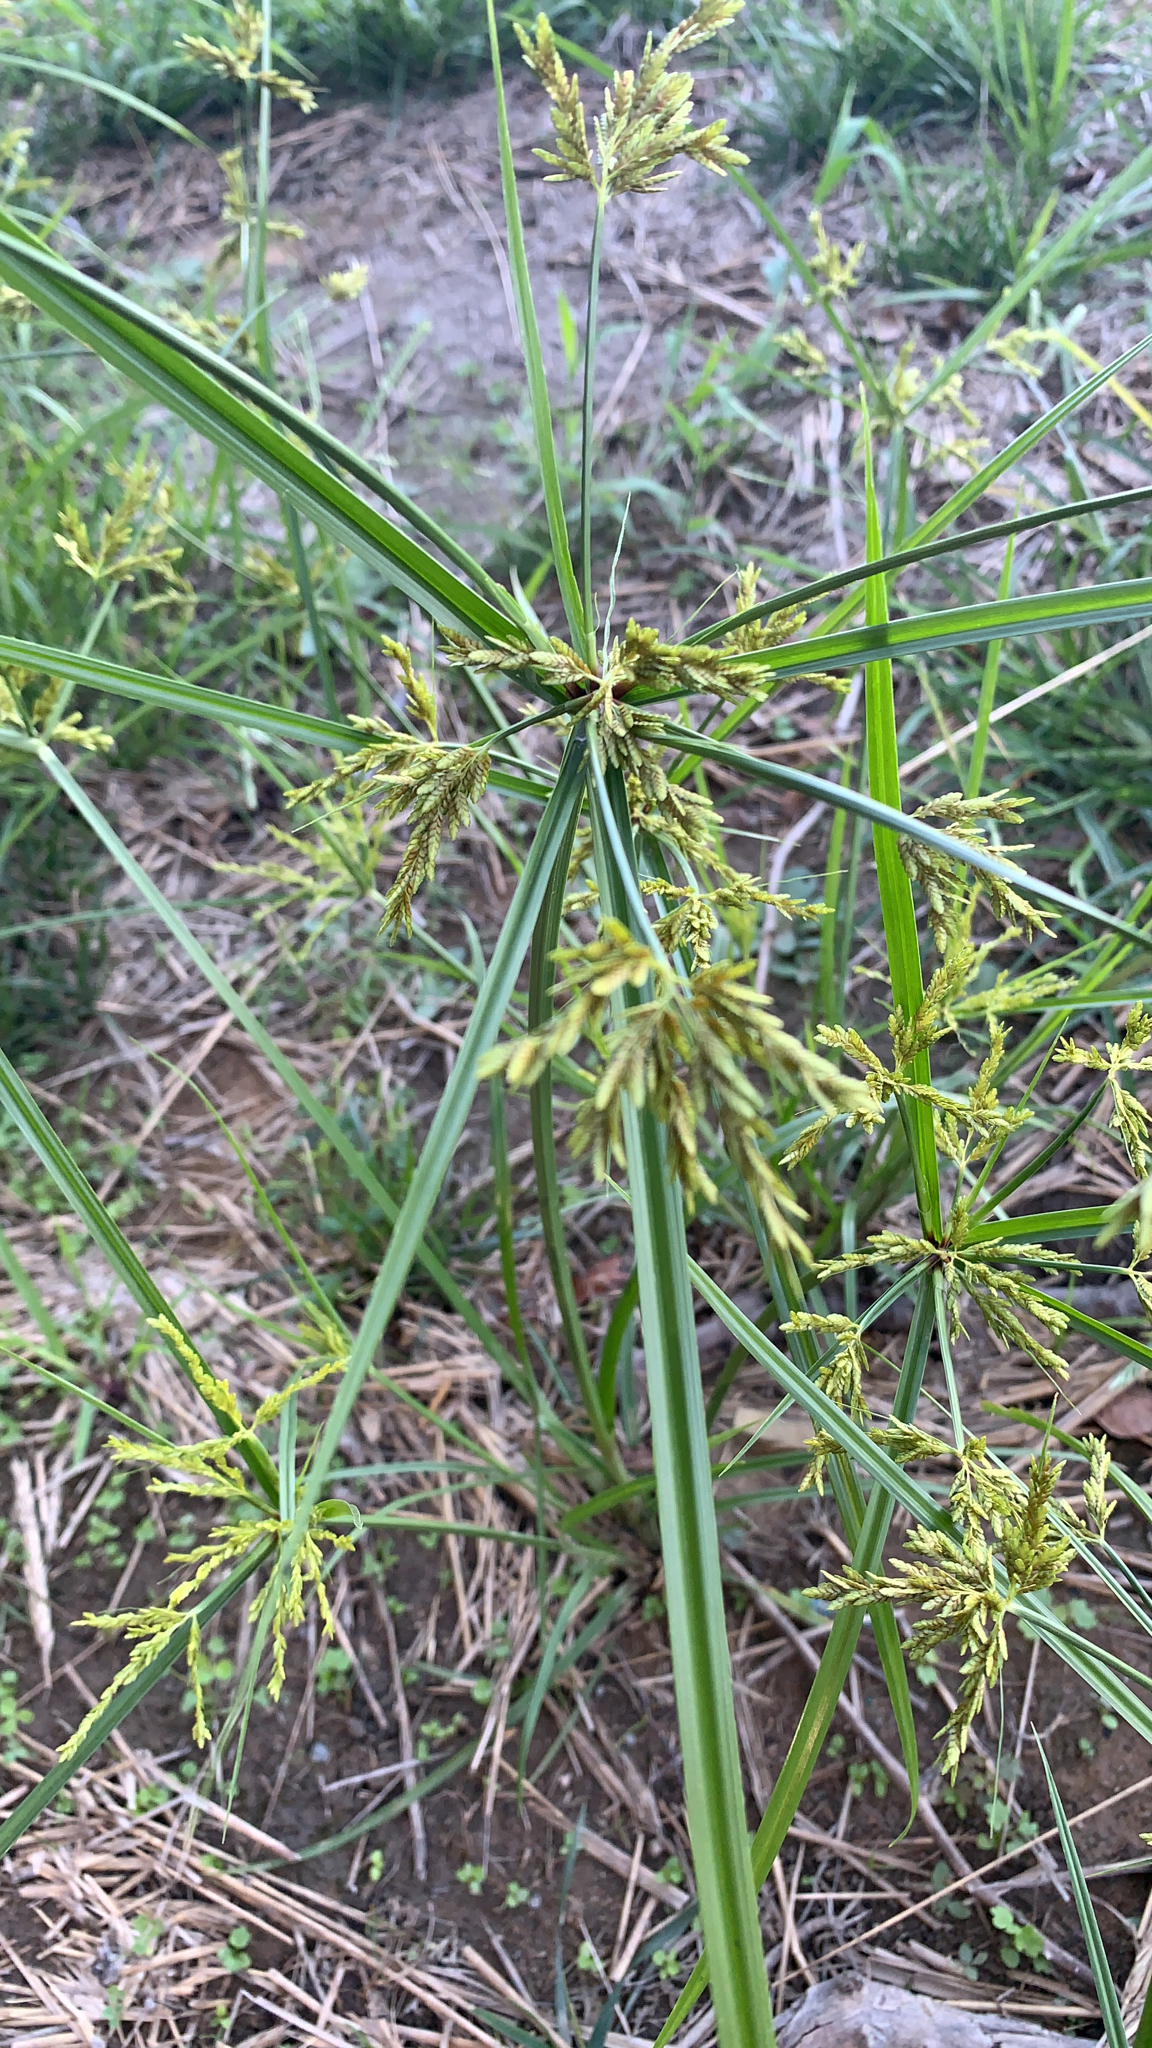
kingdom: Plantae
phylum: Tracheophyta
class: Liliopsida
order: Poales
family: Cyperaceae
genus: Cyperus
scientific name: Cyperus iria
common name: Ricefield flatsedge
